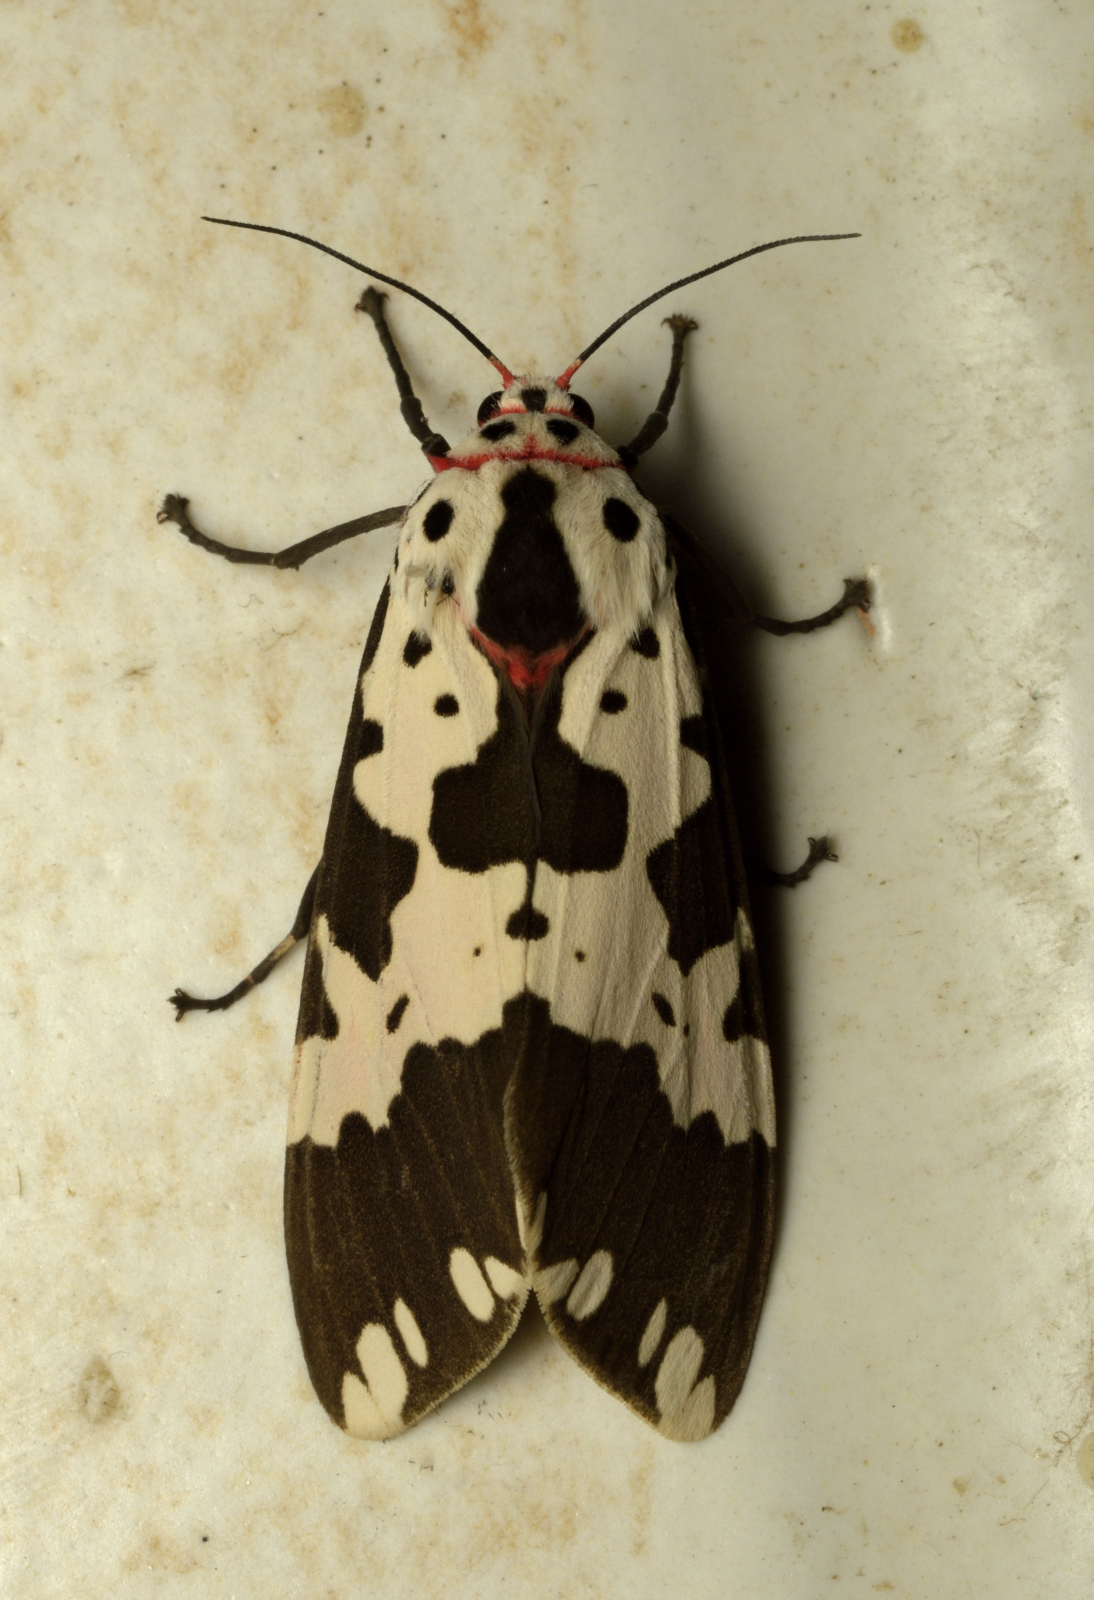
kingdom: Animalia
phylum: Arthropoda
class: Insecta
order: Lepidoptera
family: Erebidae
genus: Pericallia
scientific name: Pericallia
